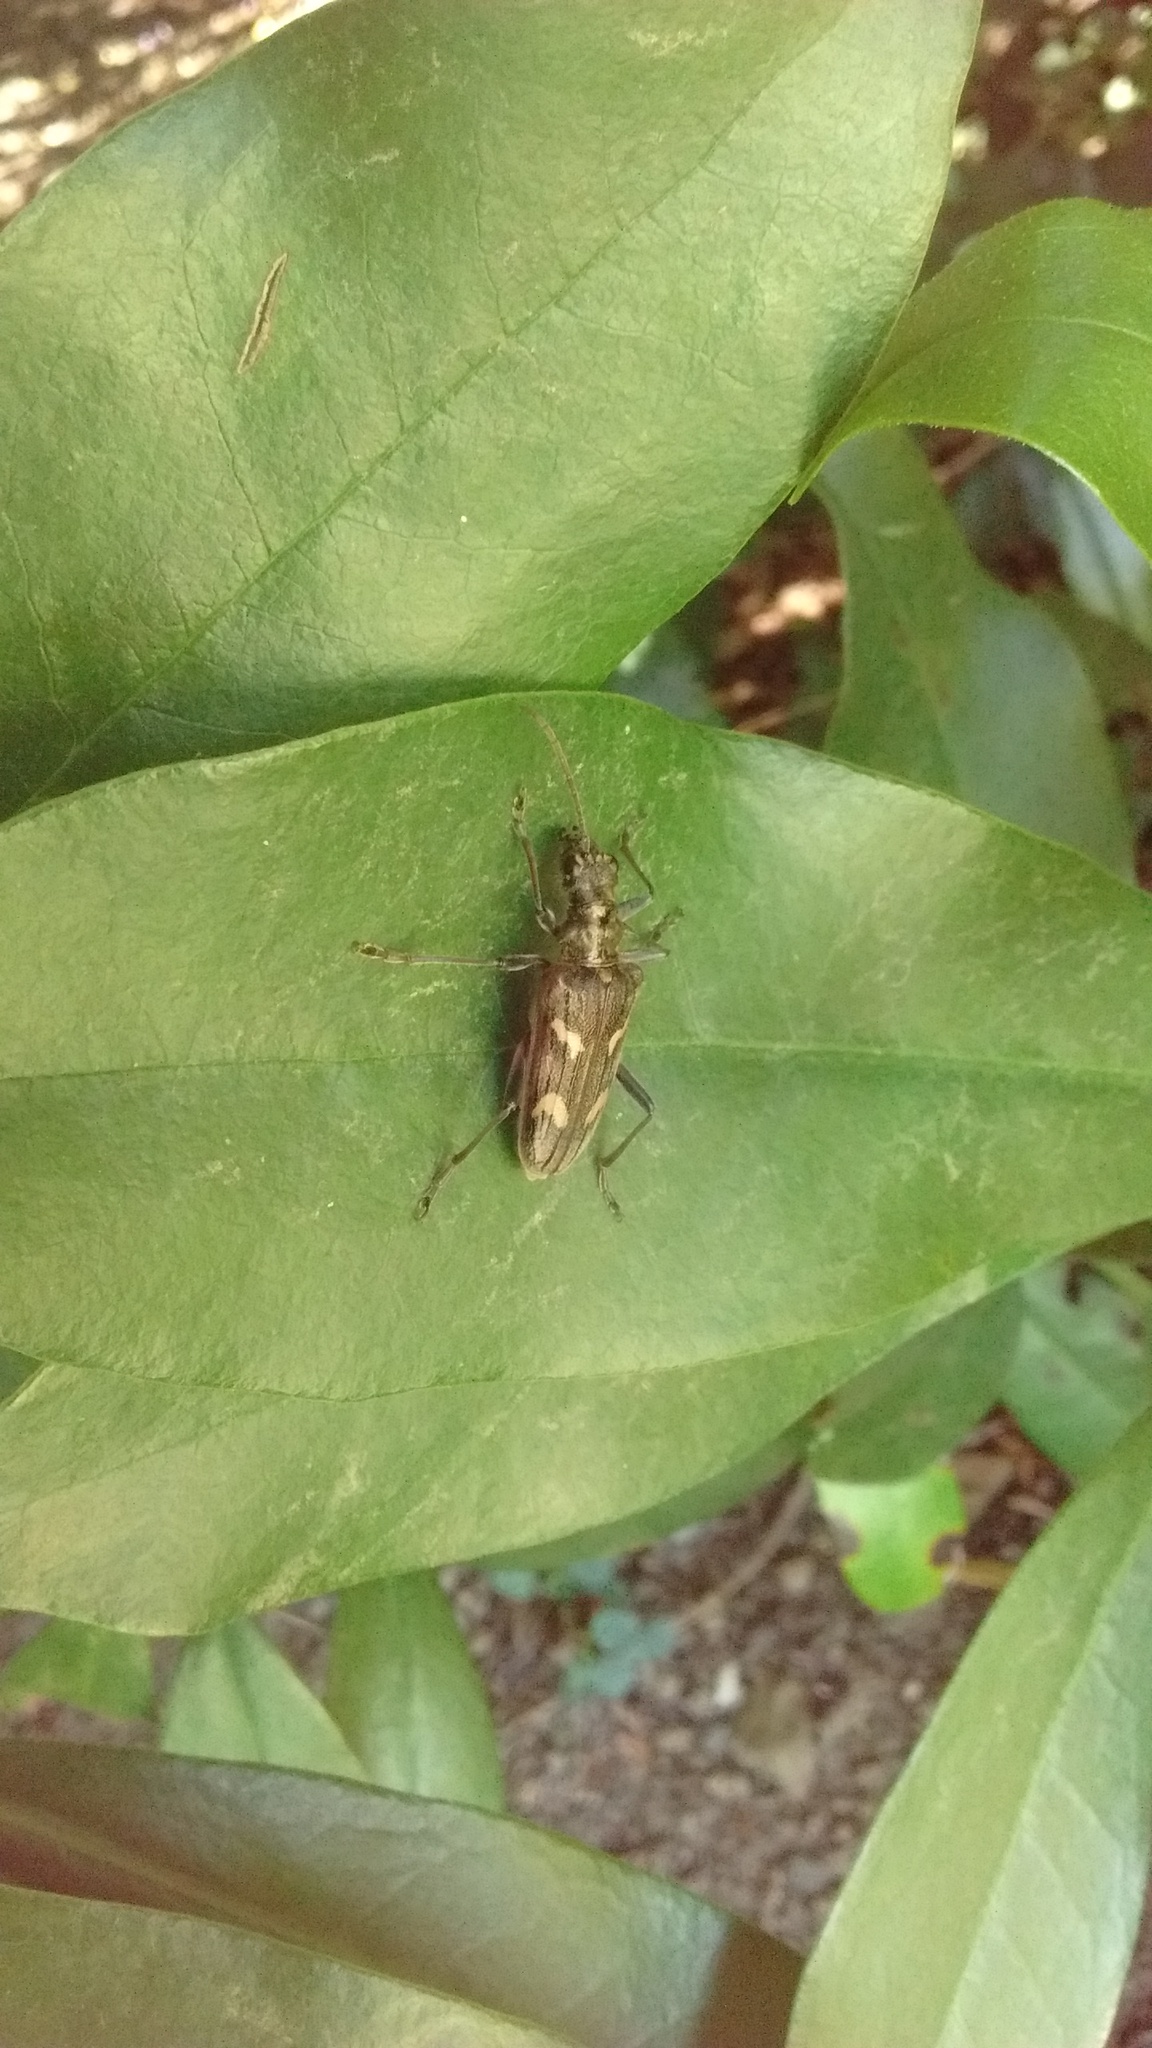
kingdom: Animalia
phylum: Arthropoda
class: Insecta
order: Coleoptera
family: Cerambycidae
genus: Rhagium
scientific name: Rhagium bifasciatum
